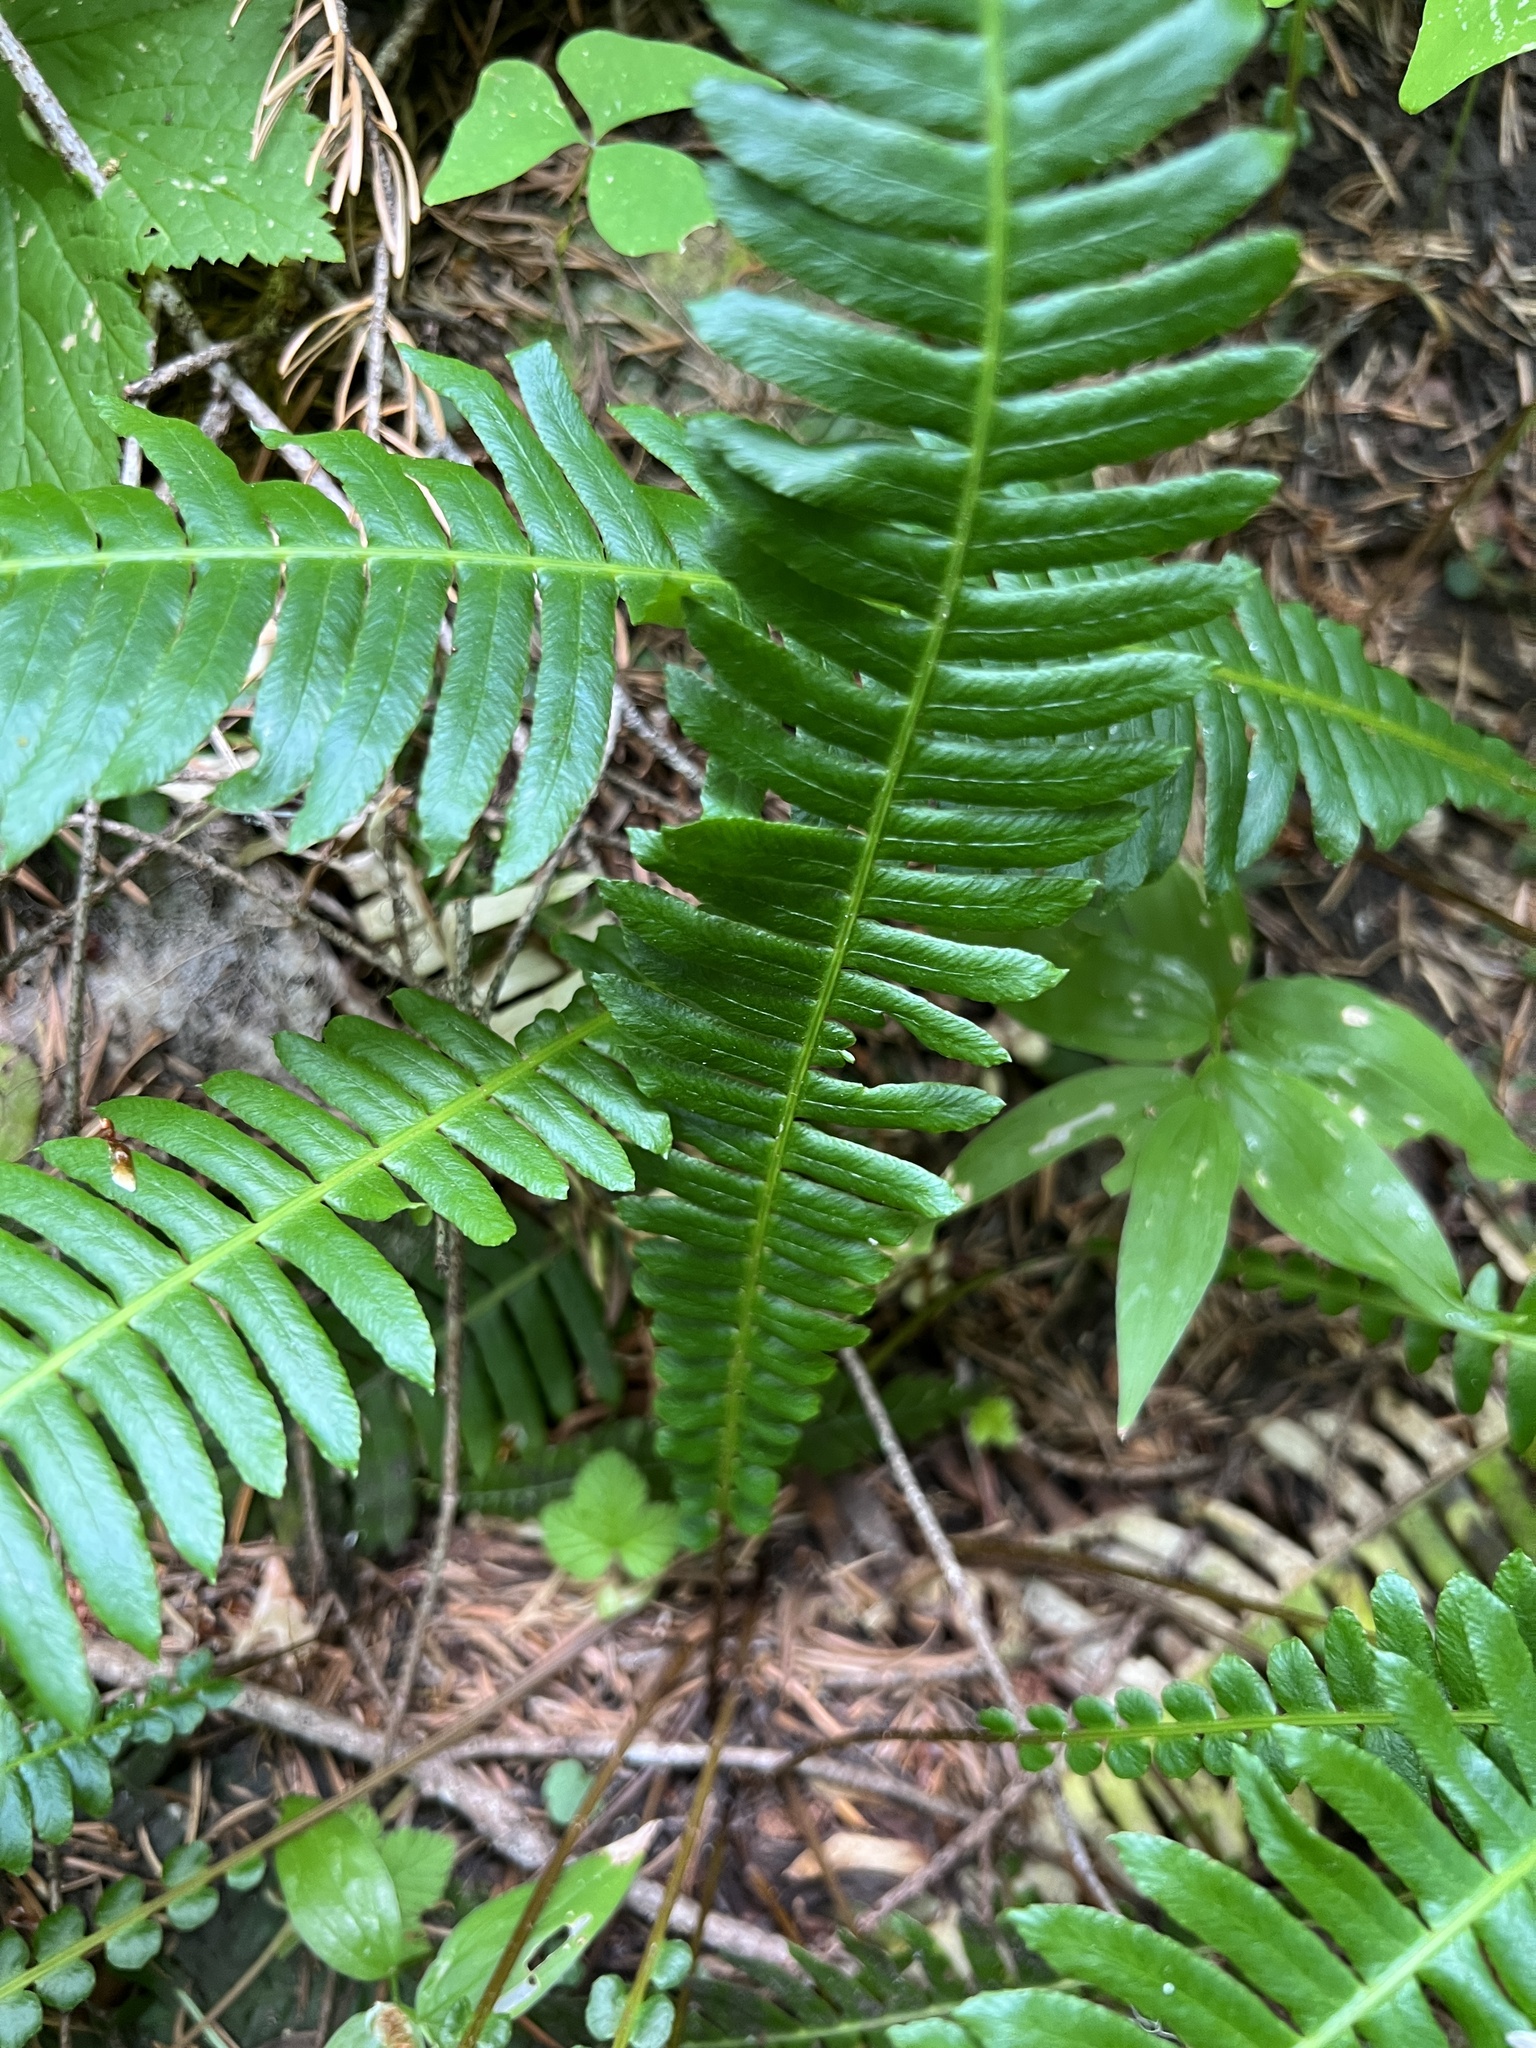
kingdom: Plantae
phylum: Tracheophyta
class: Polypodiopsida
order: Polypodiales
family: Blechnaceae
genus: Struthiopteris
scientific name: Struthiopteris spicant
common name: Deer fern
